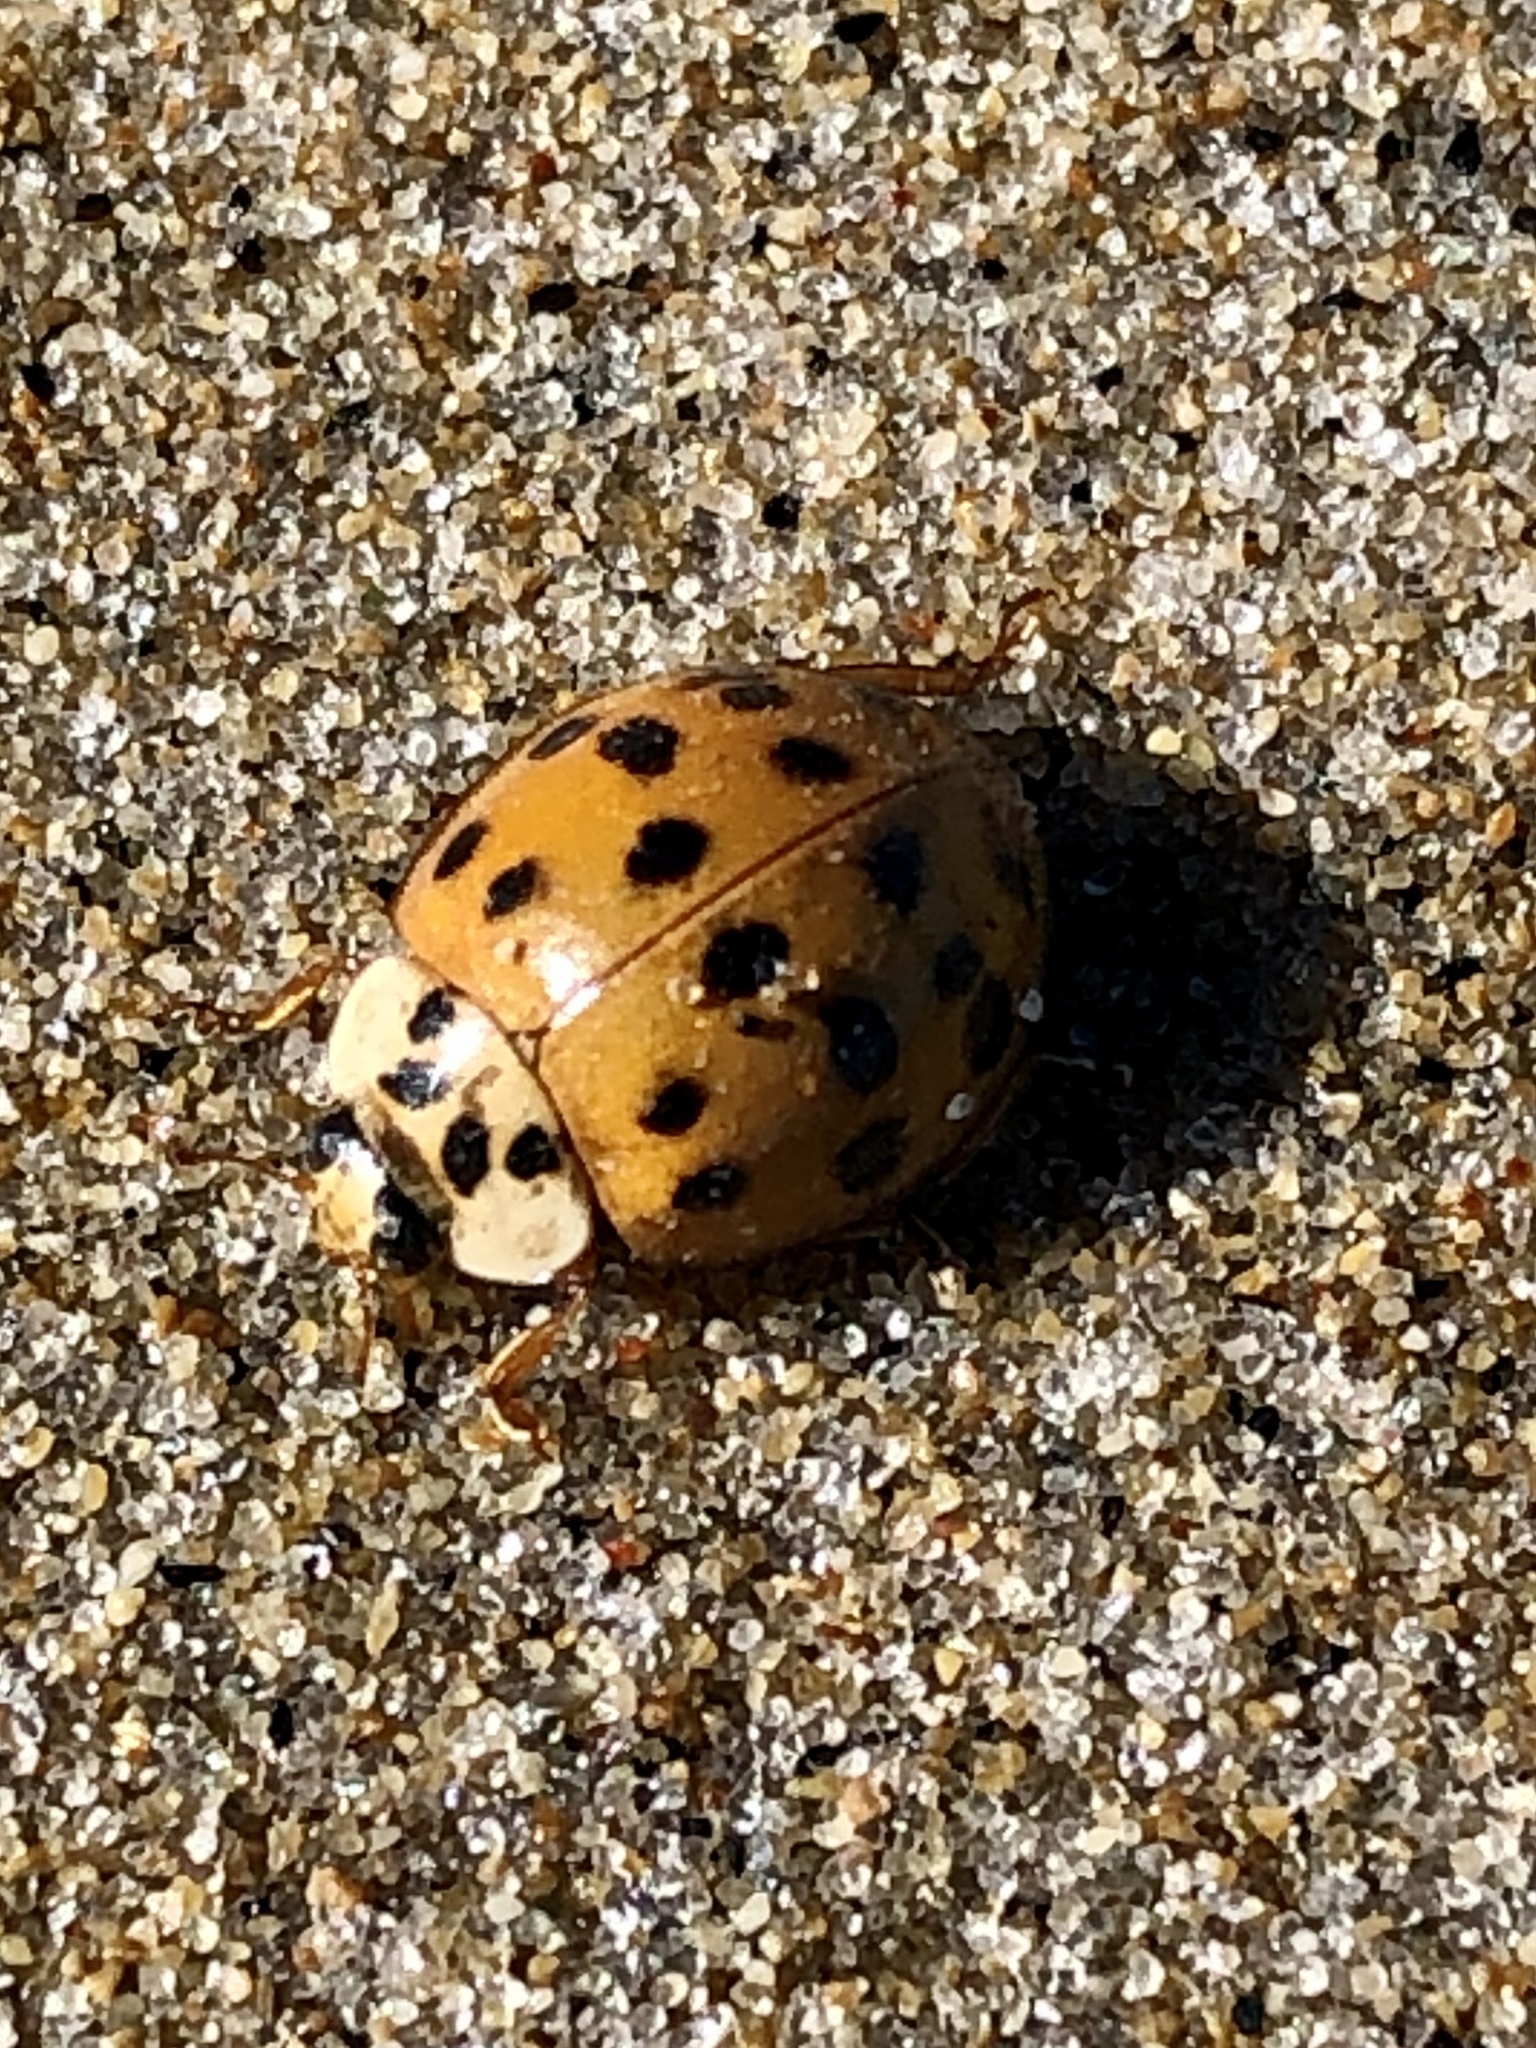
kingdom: Animalia
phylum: Arthropoda
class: Insecta
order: Coleoptera
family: Coccinellidae
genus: Harmonia
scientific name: Harmonia axyridis
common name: Harlequin ladybird
